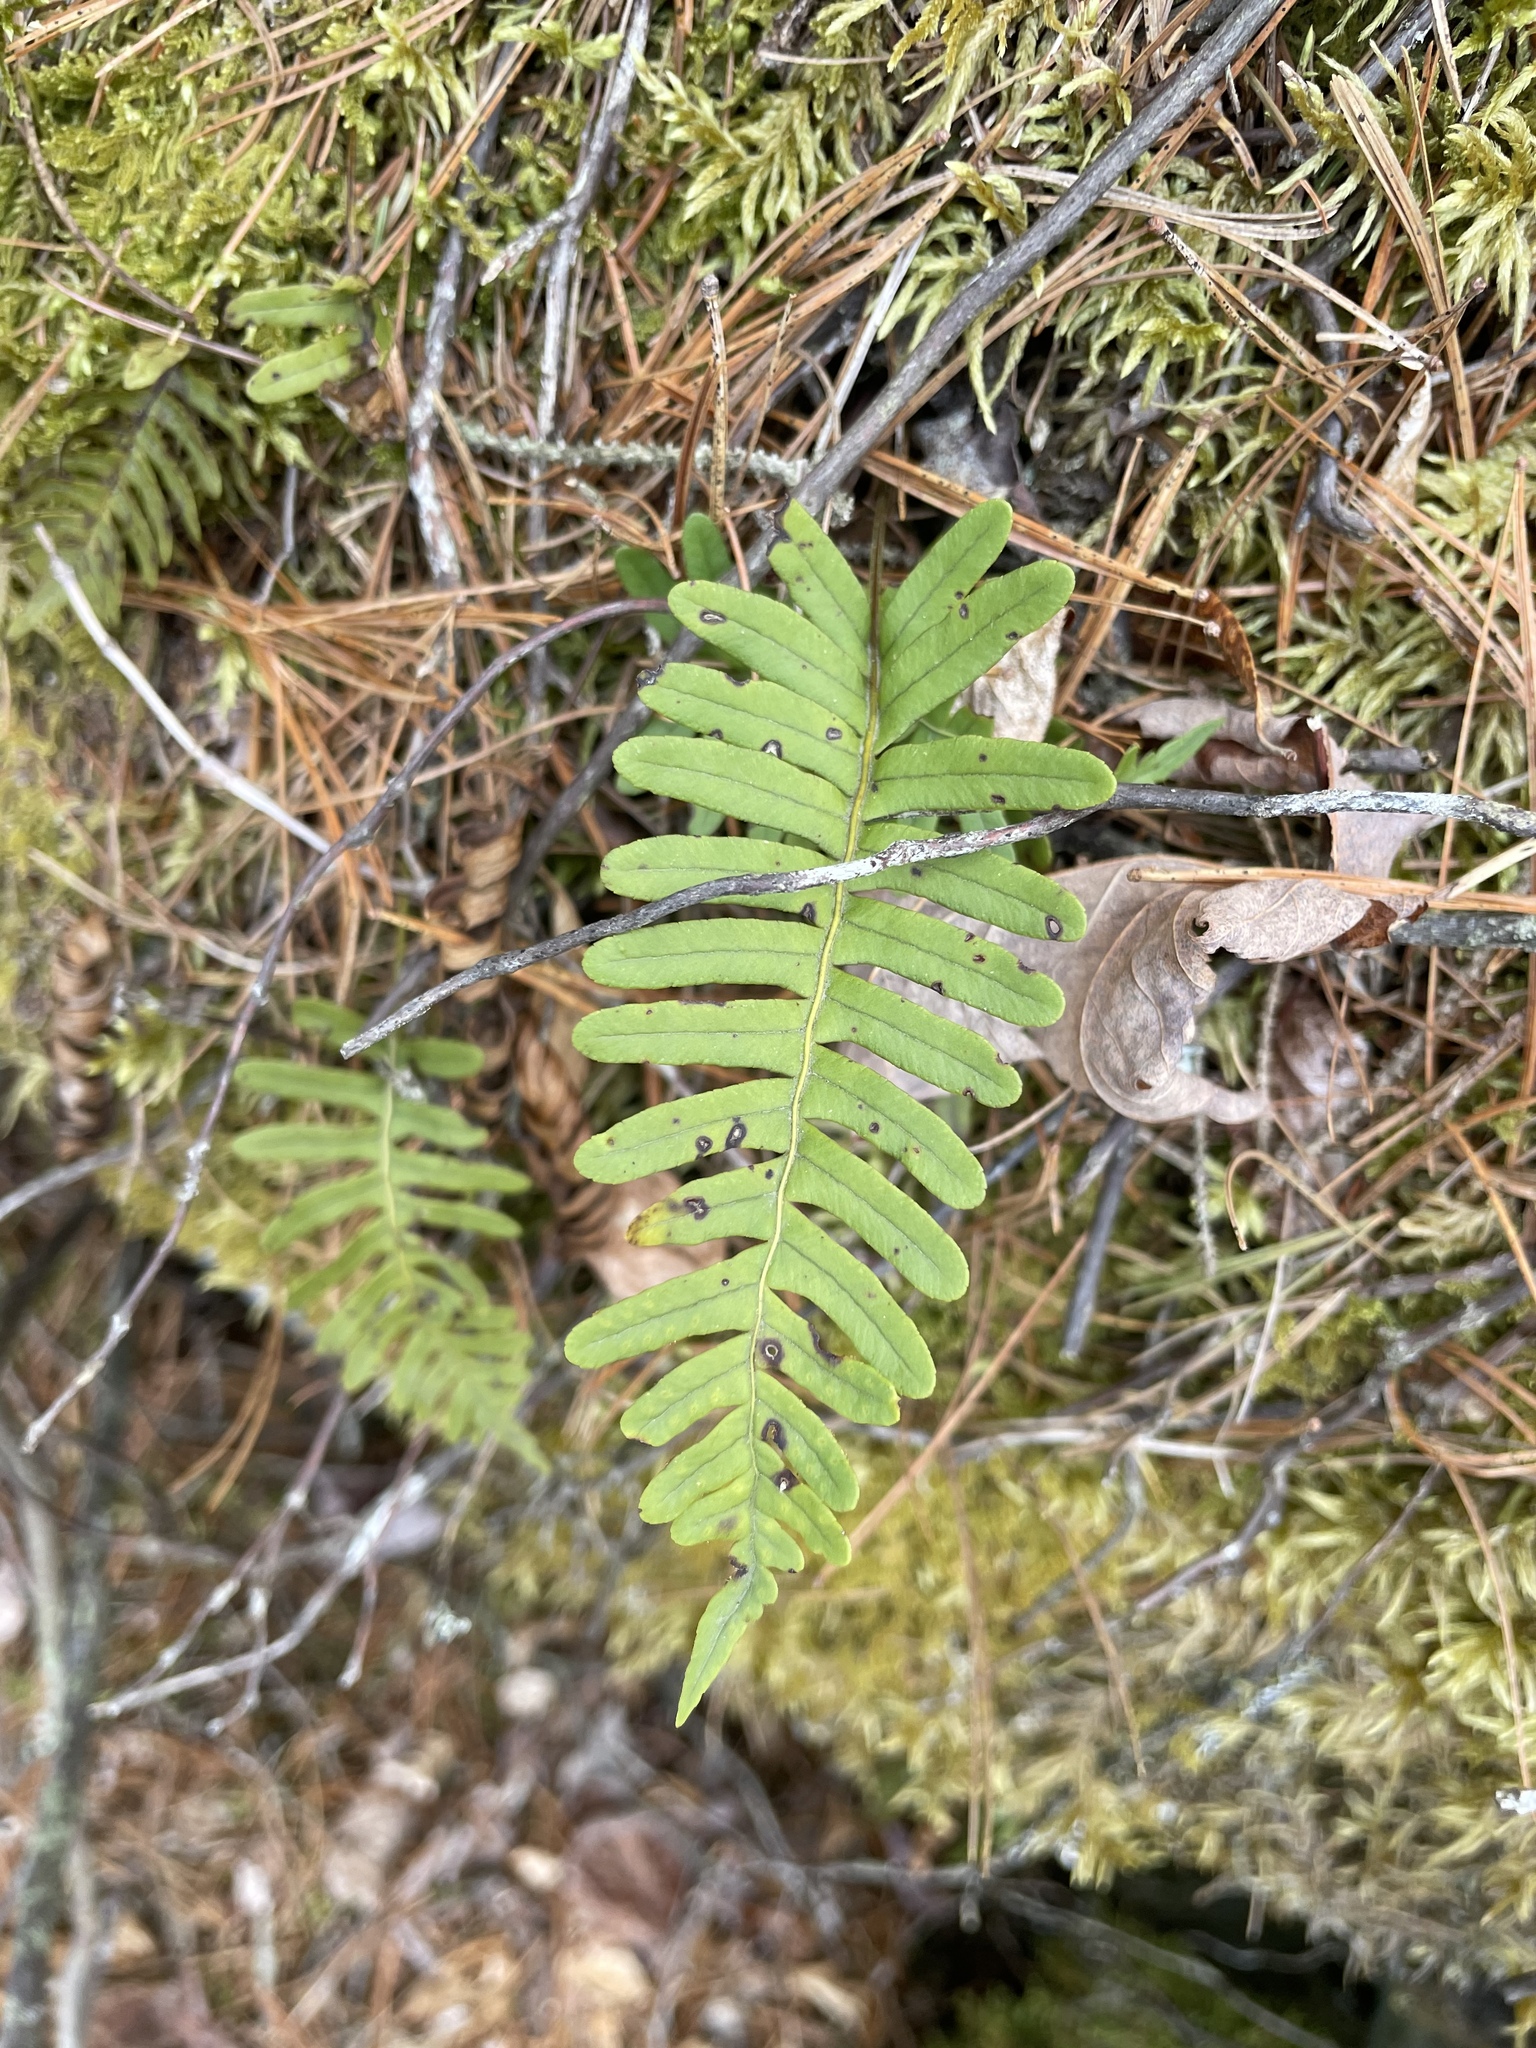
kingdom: Plantae
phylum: Tracheophyta
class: Polypodiopsida
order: Polypodiales
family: Polypodiaceae
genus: Polypodium
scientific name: Polypodium virginianum
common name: American wall fern
